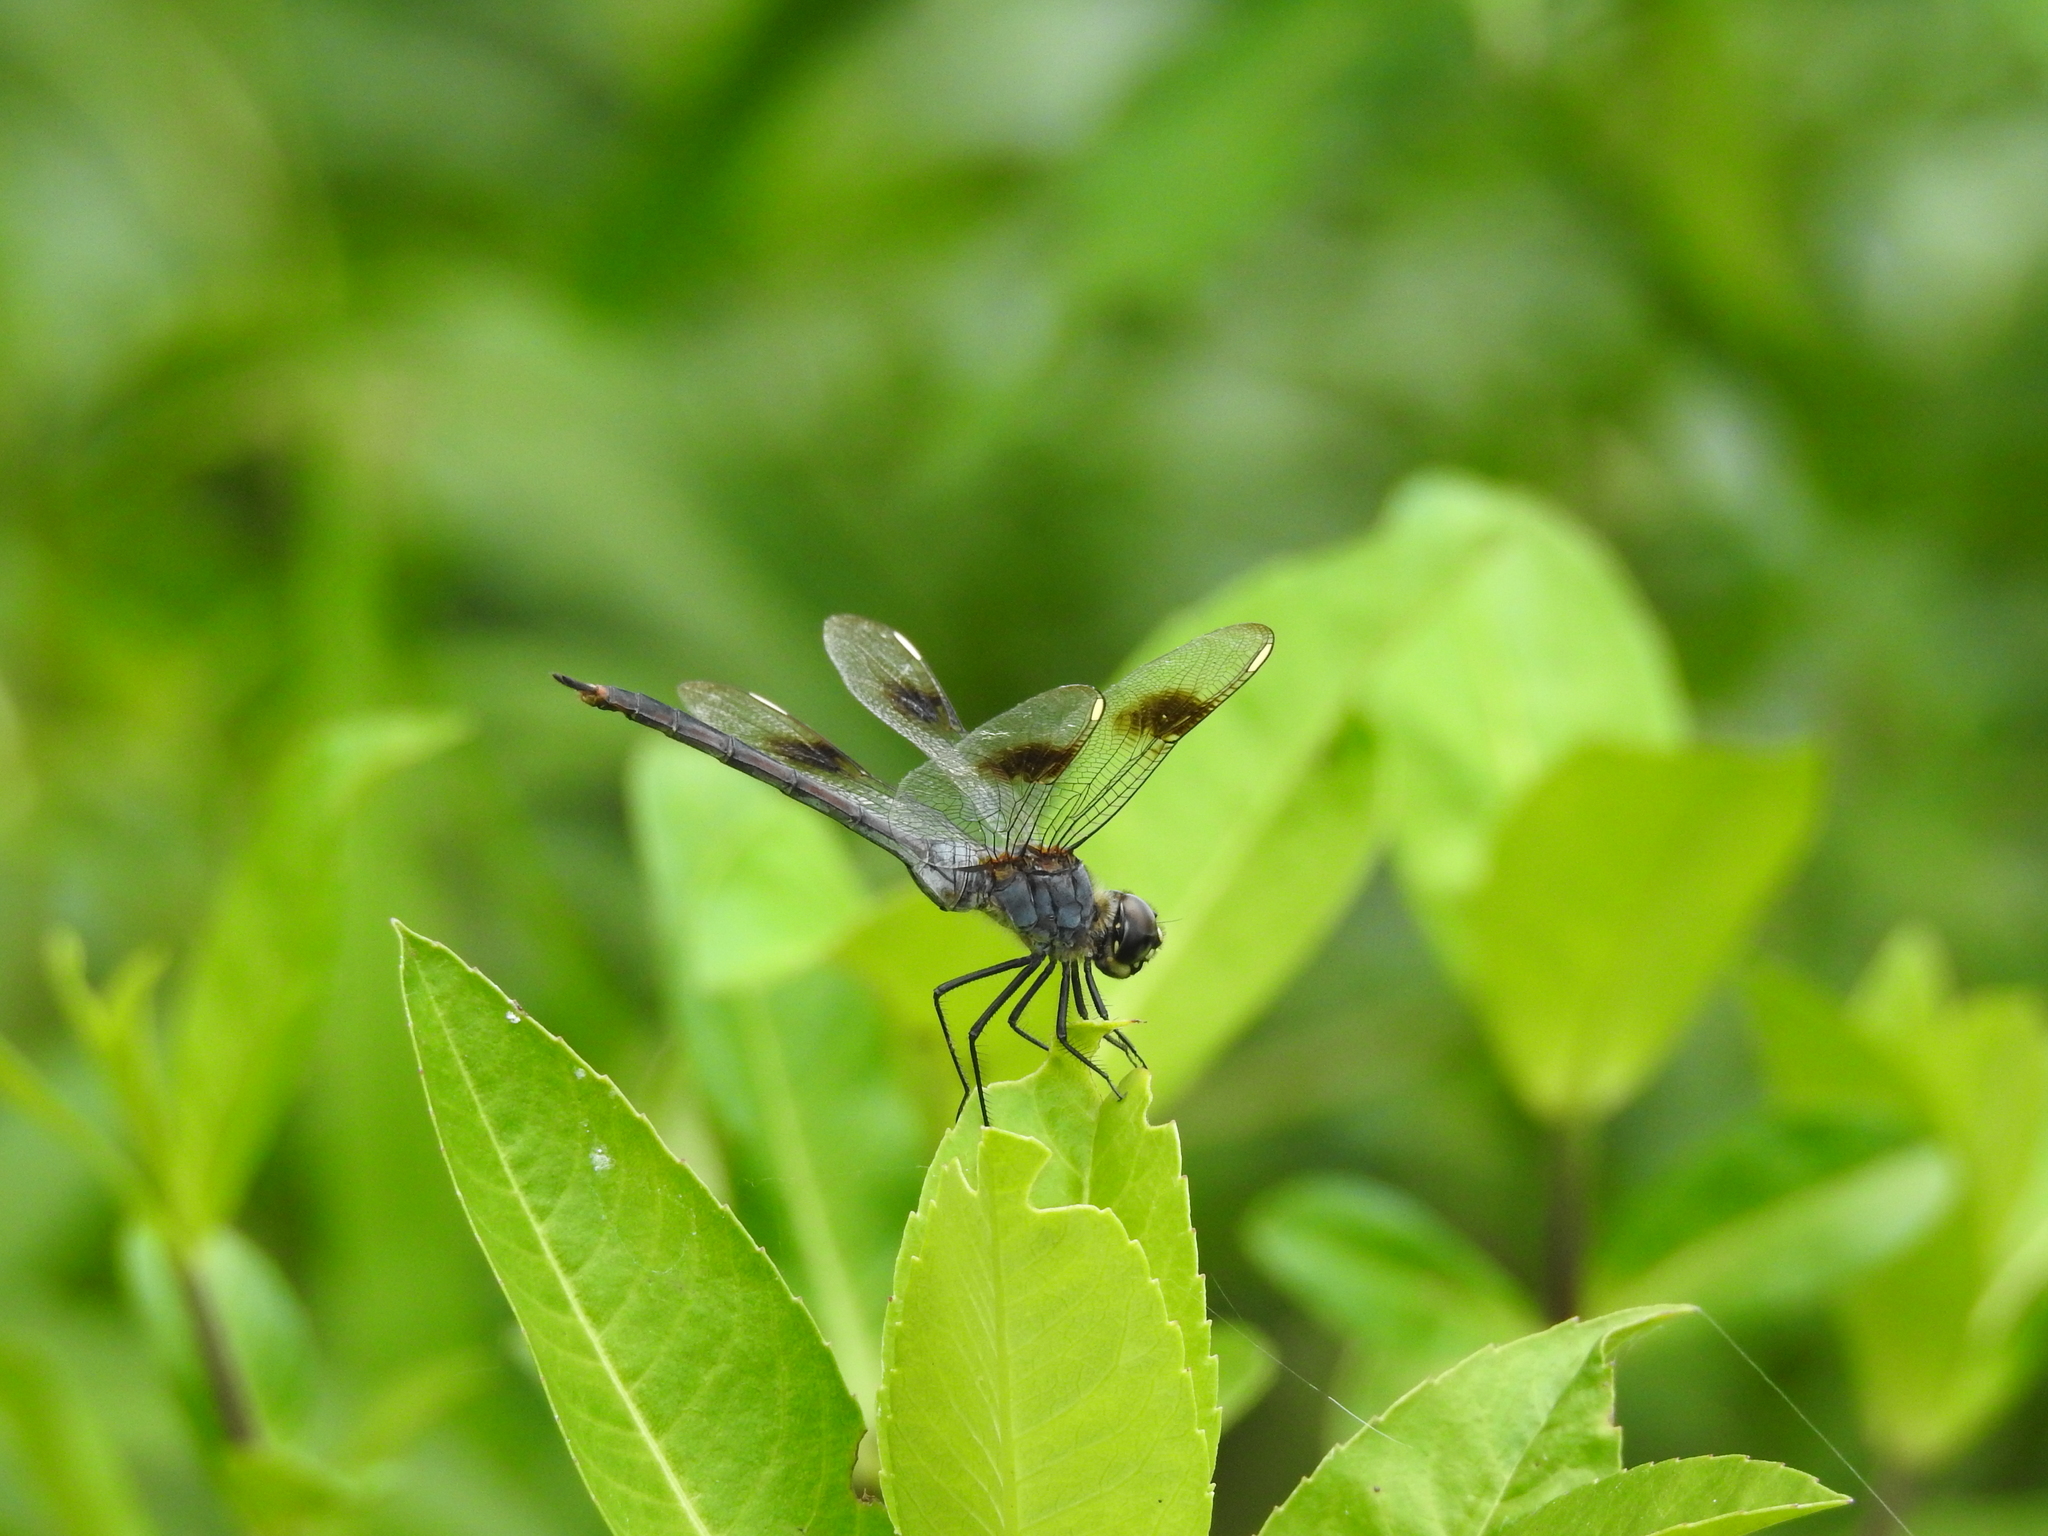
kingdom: Animalia
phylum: Arthropoda
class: Insecta
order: Odonata
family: Libellulidae
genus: Brachymesia
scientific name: Brachymesia gravida
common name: Four-spotted pennant
